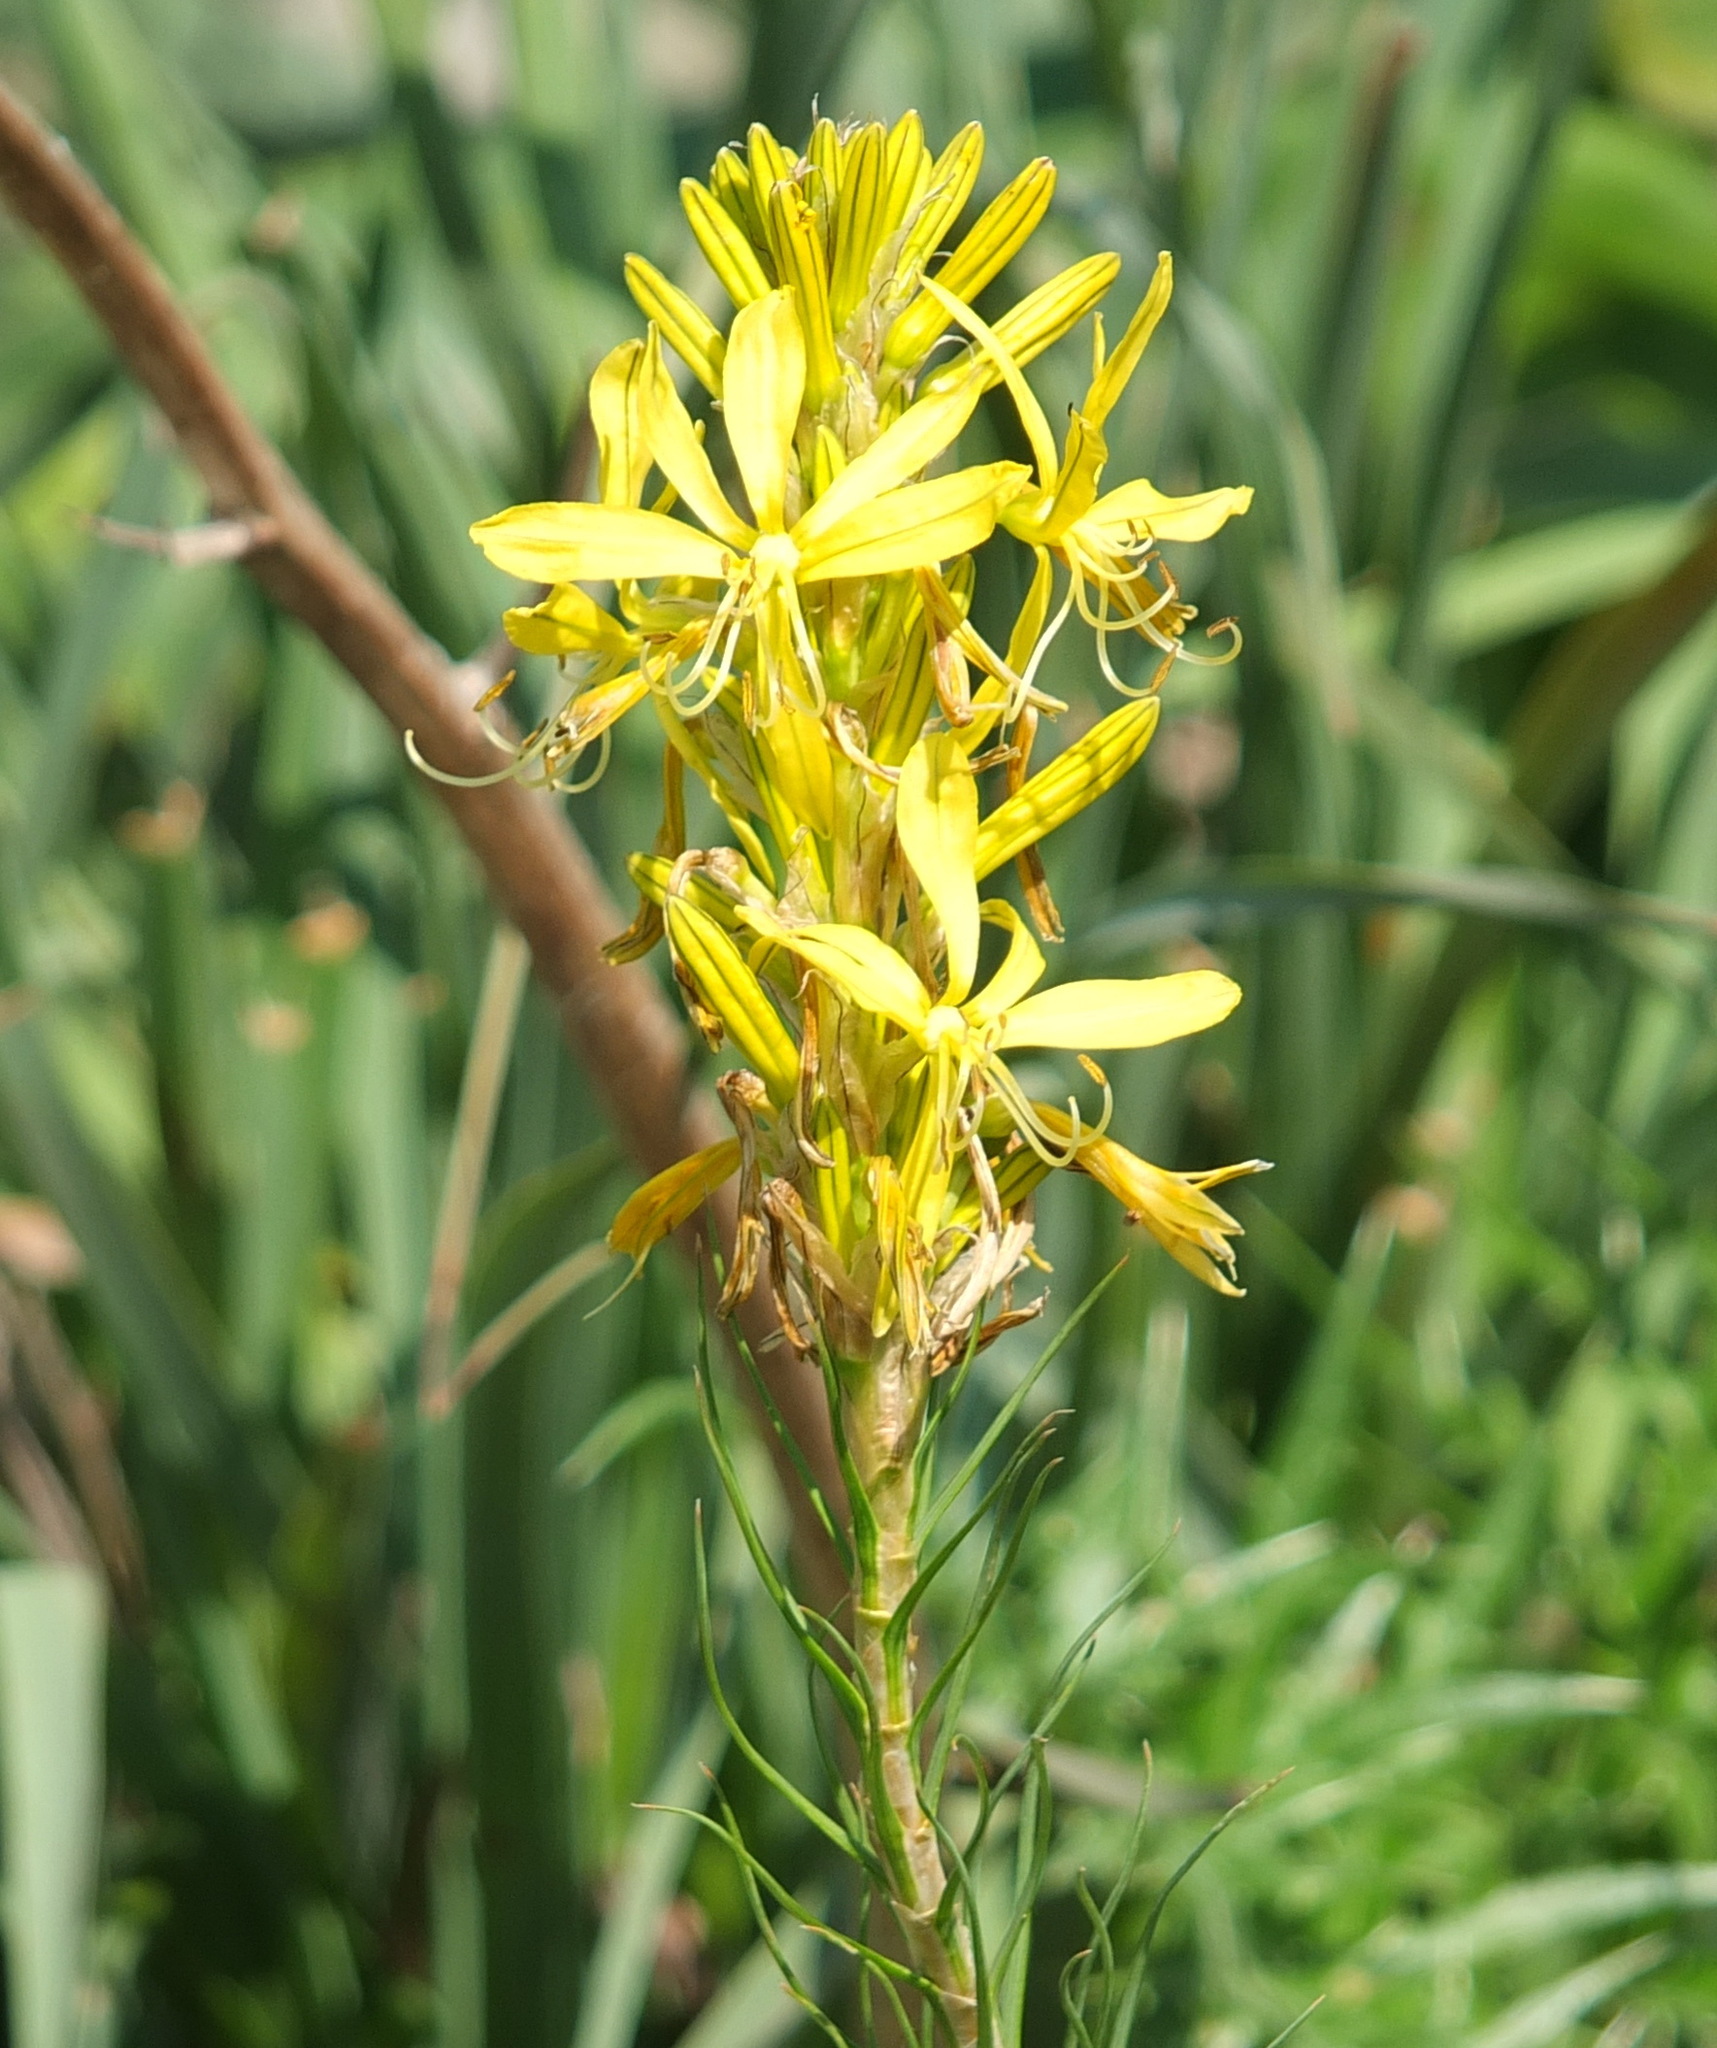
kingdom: Plantae
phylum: Tracheophyta
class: Liliopsida
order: Asparagales
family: Asphodelaceae
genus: Asphodeline
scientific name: Asphodeline lutea
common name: Yellow asphodel
